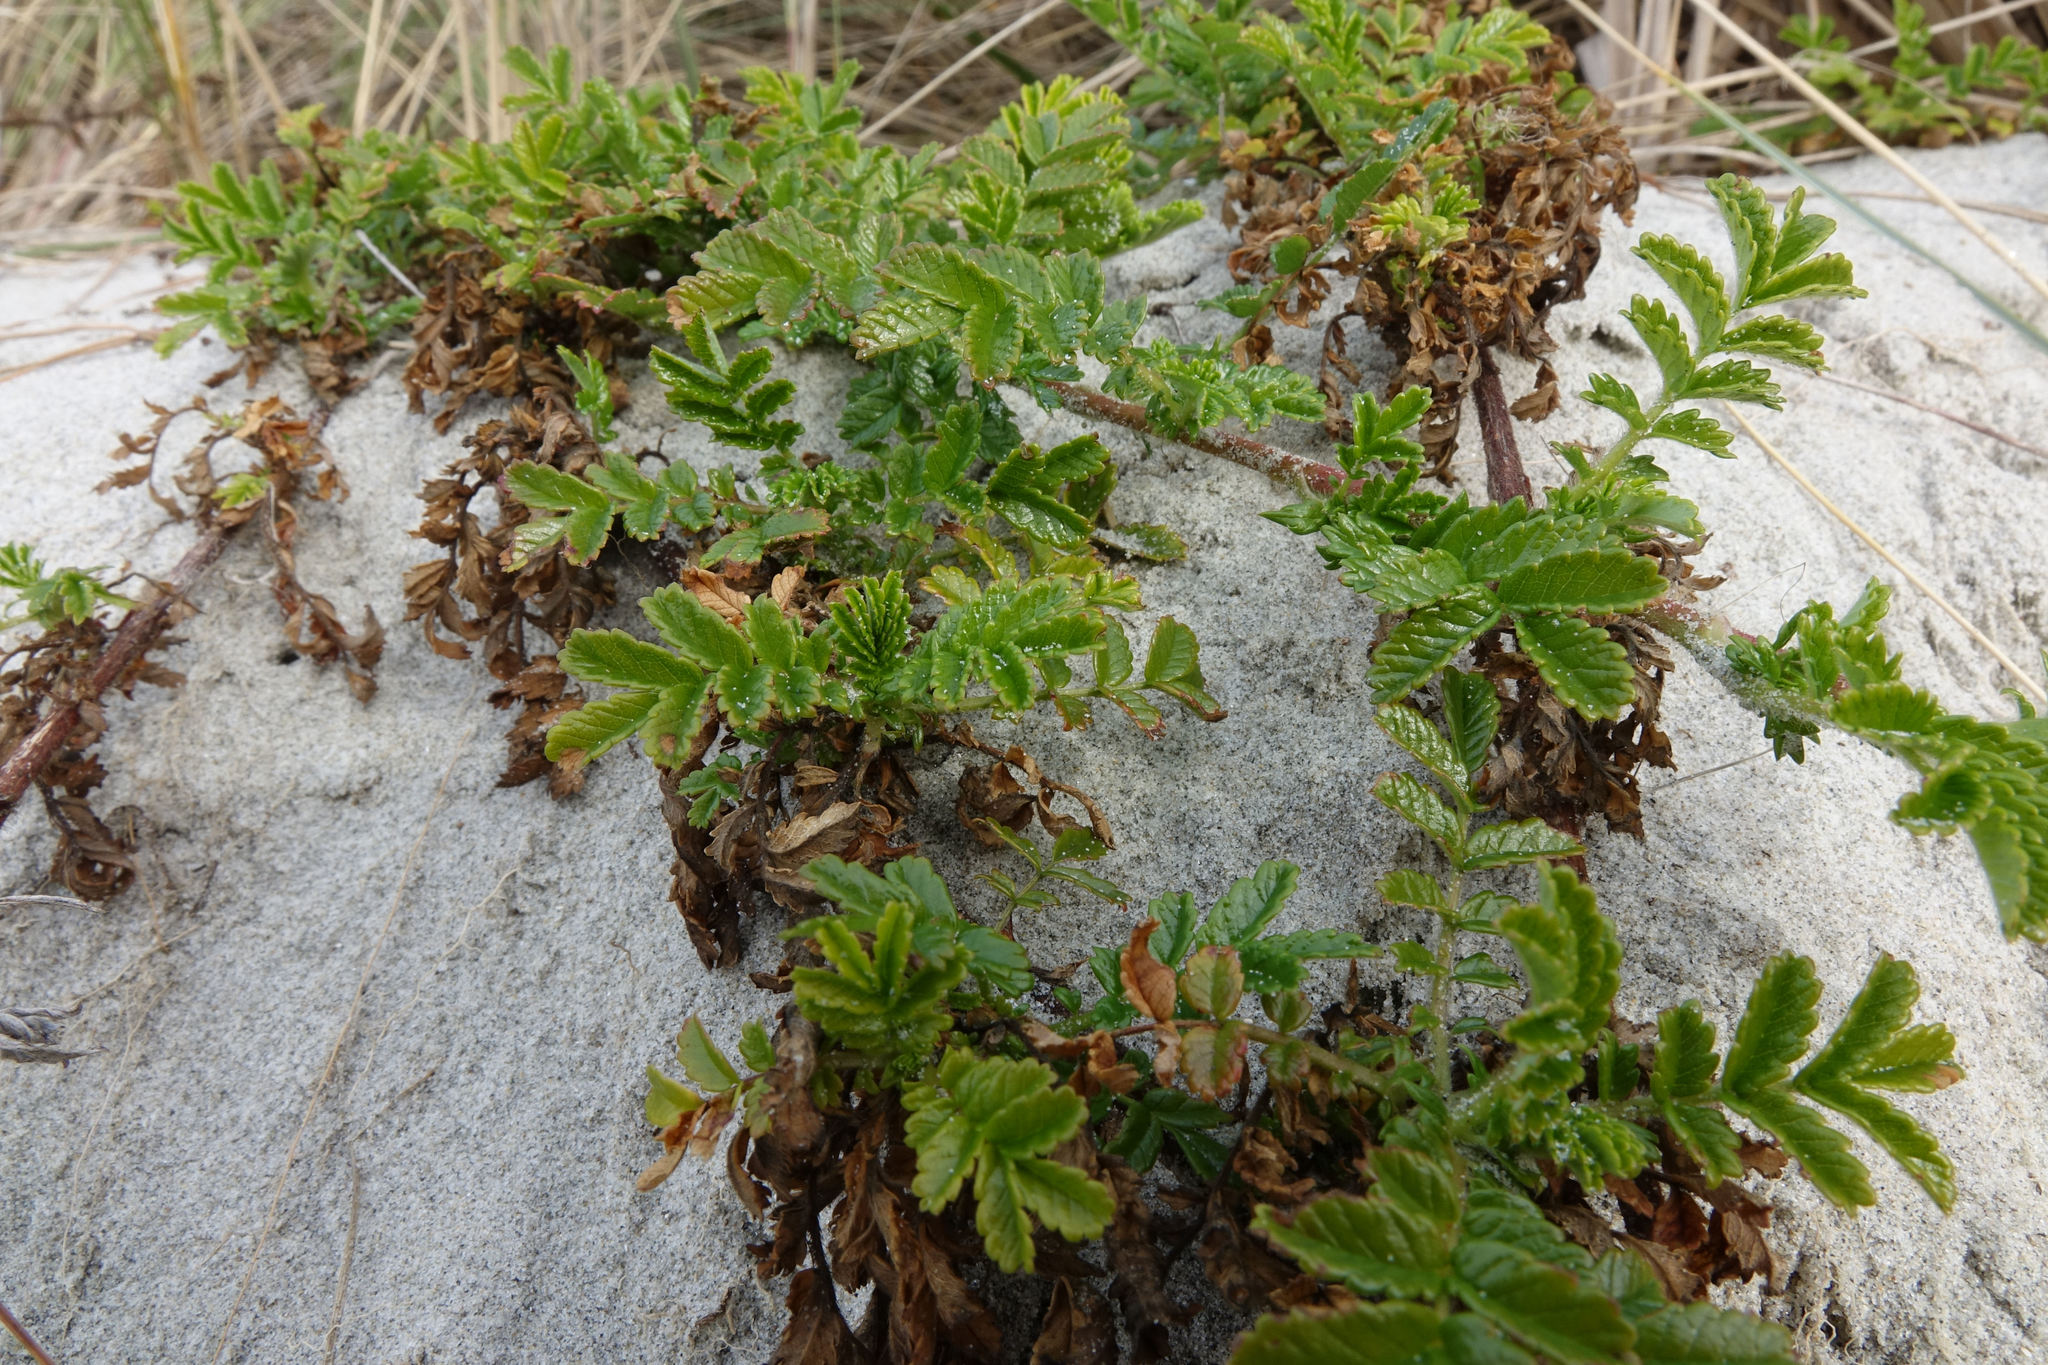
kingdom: Plantae
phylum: Tracheophyta
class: Magnoliopsida
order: Rosales
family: Rosaceae
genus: Acaena
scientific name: Acaena novae-zelandiae
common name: Pirri-pirri-bur
